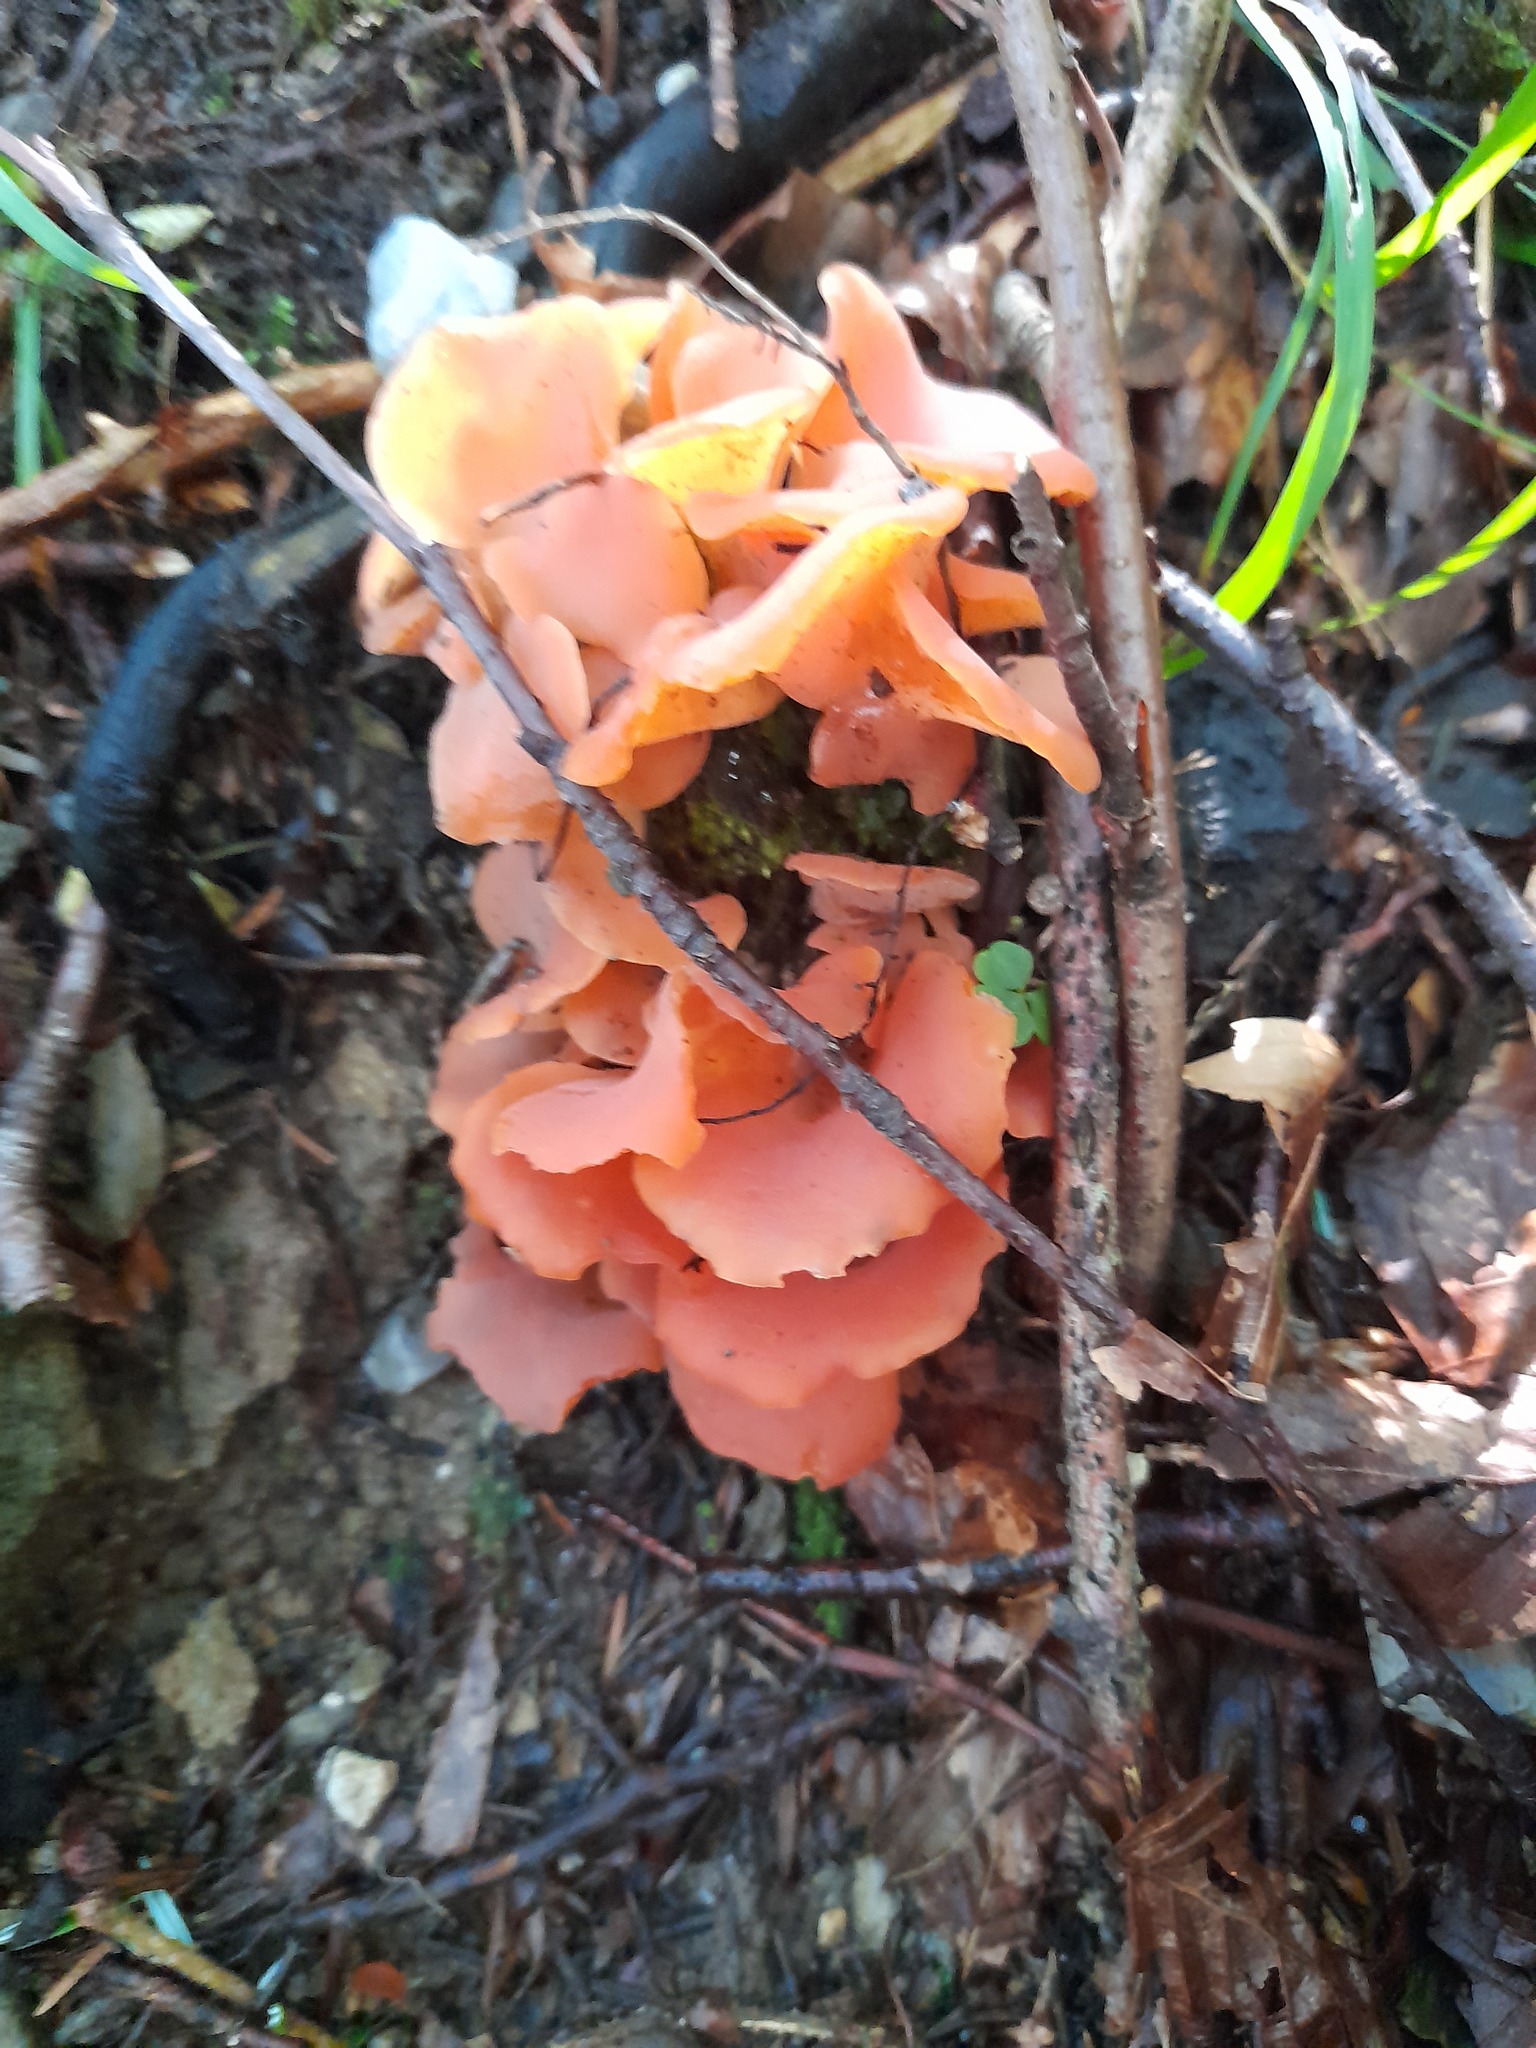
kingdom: Fungi
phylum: Basidiomycota
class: Agaricomycetes
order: Auriculariales
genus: Guepinia
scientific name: Guepinia helvelloides
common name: Salmon salad
